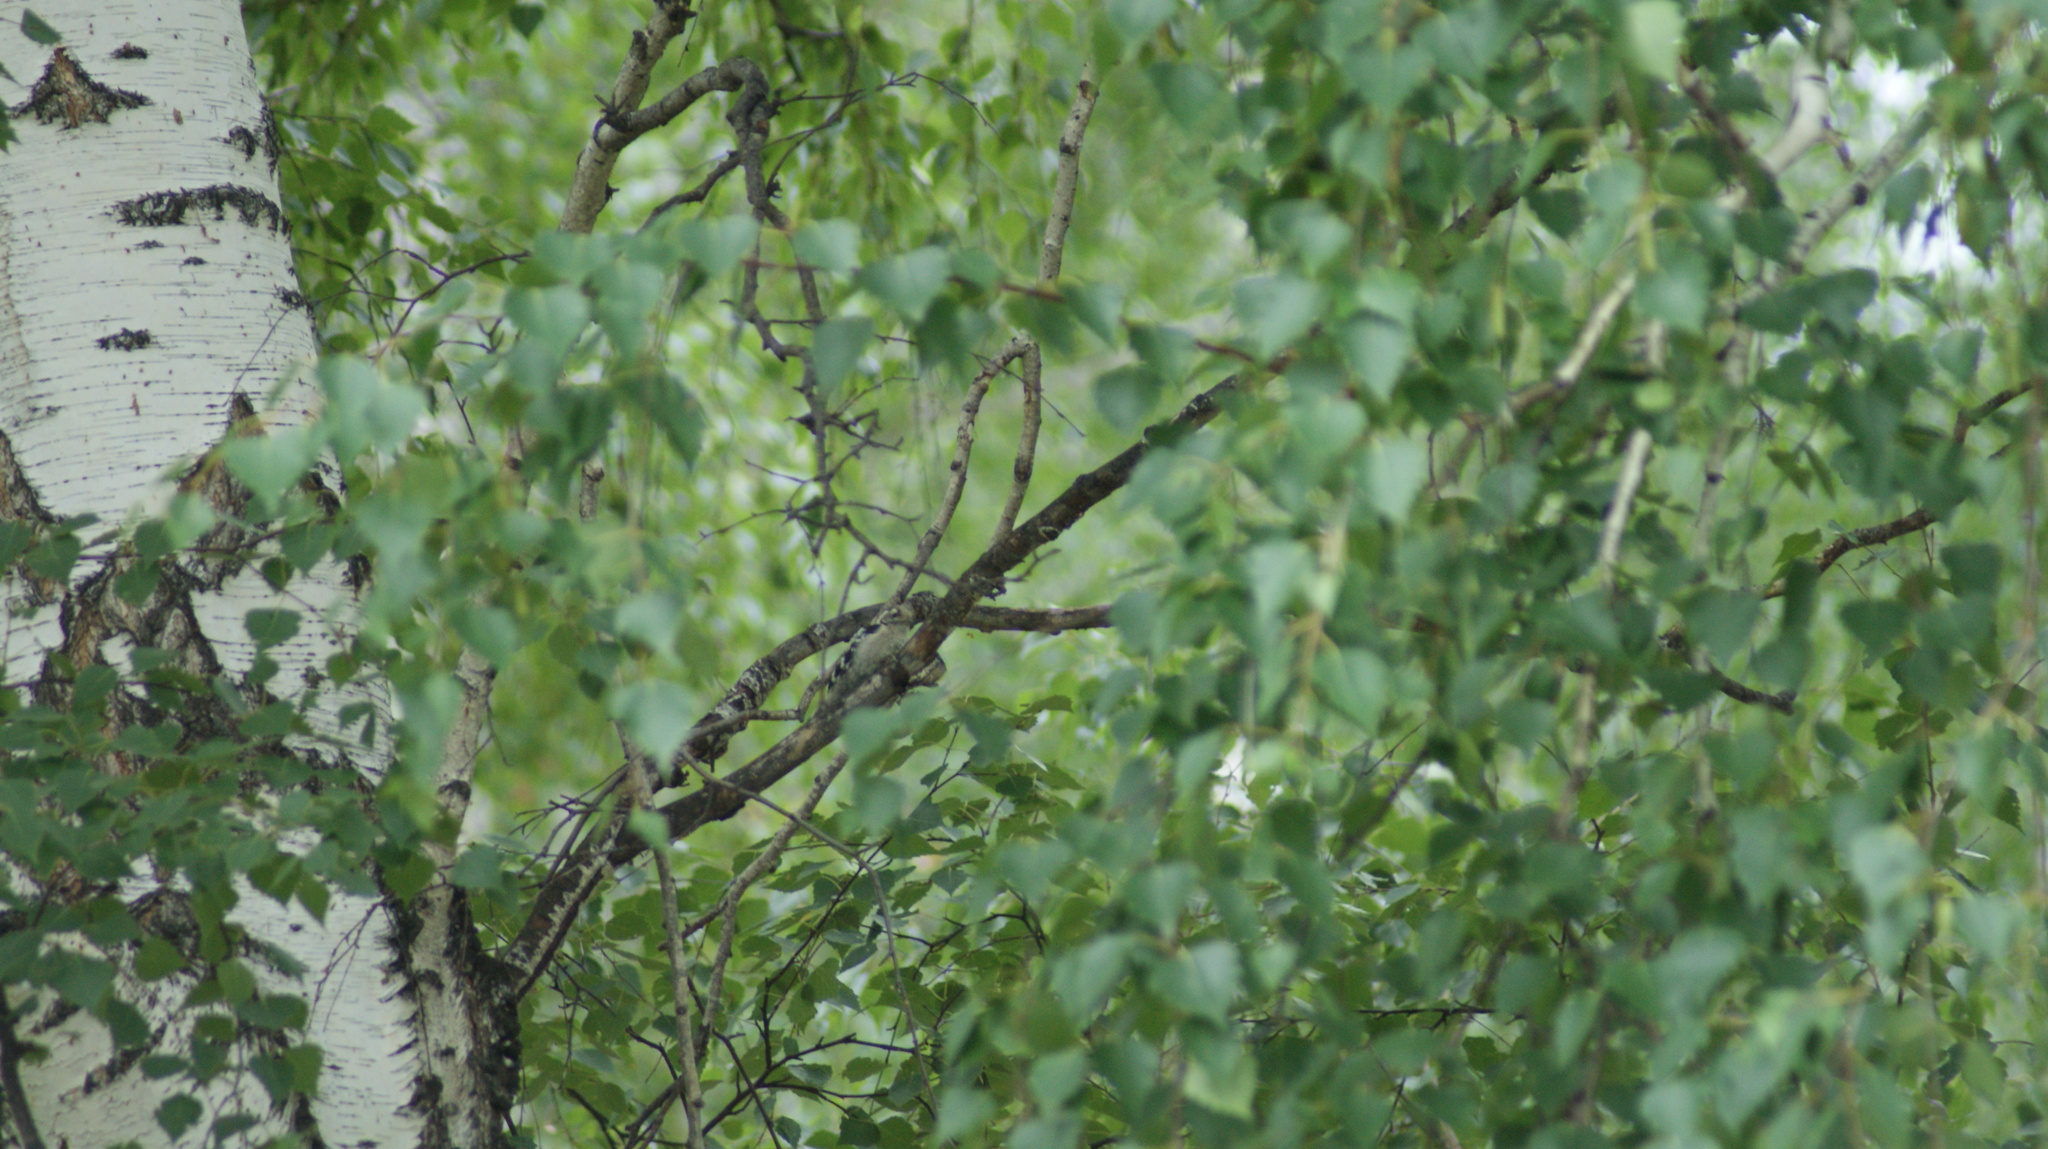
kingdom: Animalia
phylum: Chordata
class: Aves
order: Piciformes
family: Picidae
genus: Dryobates
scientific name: Dryobates minor
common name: Lesser spotted woodpecker
